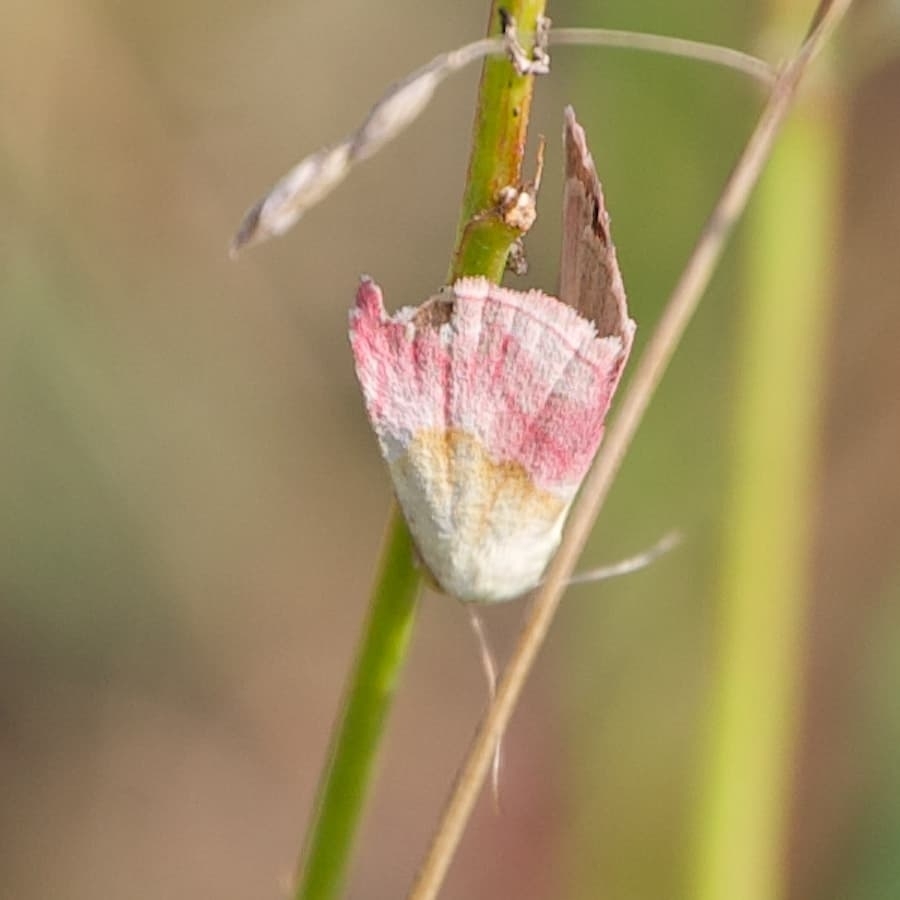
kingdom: Animalia
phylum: Arthropoda
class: Insecta
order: Lepidoptera
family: Noctuidae
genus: Eublemma
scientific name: Eublemma purpurina
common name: Beautiful marbled
